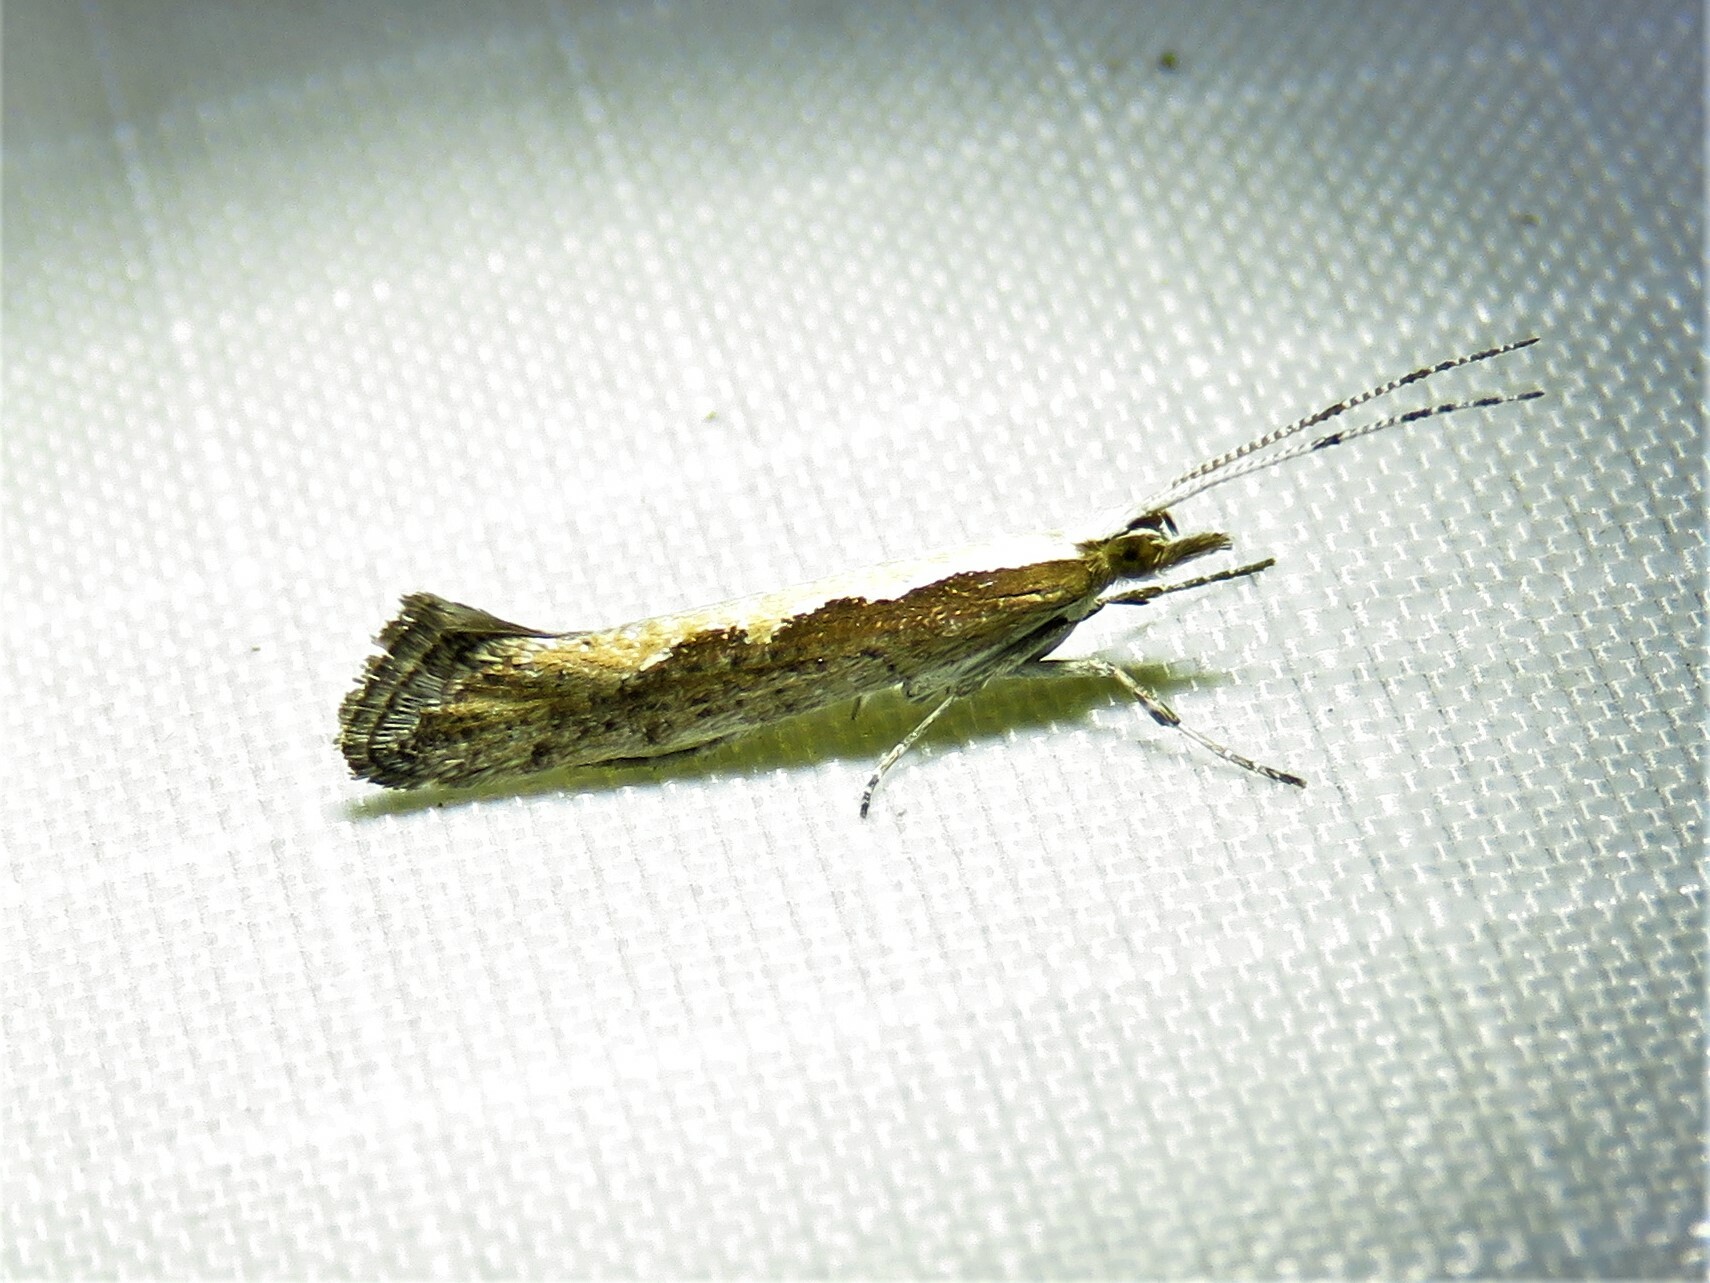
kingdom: Animalia
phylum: Arthropoda
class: Insecta
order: Lepidoptera
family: Plutellidae
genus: Plutella
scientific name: Plutella xylostella
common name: Diamond-back moth
